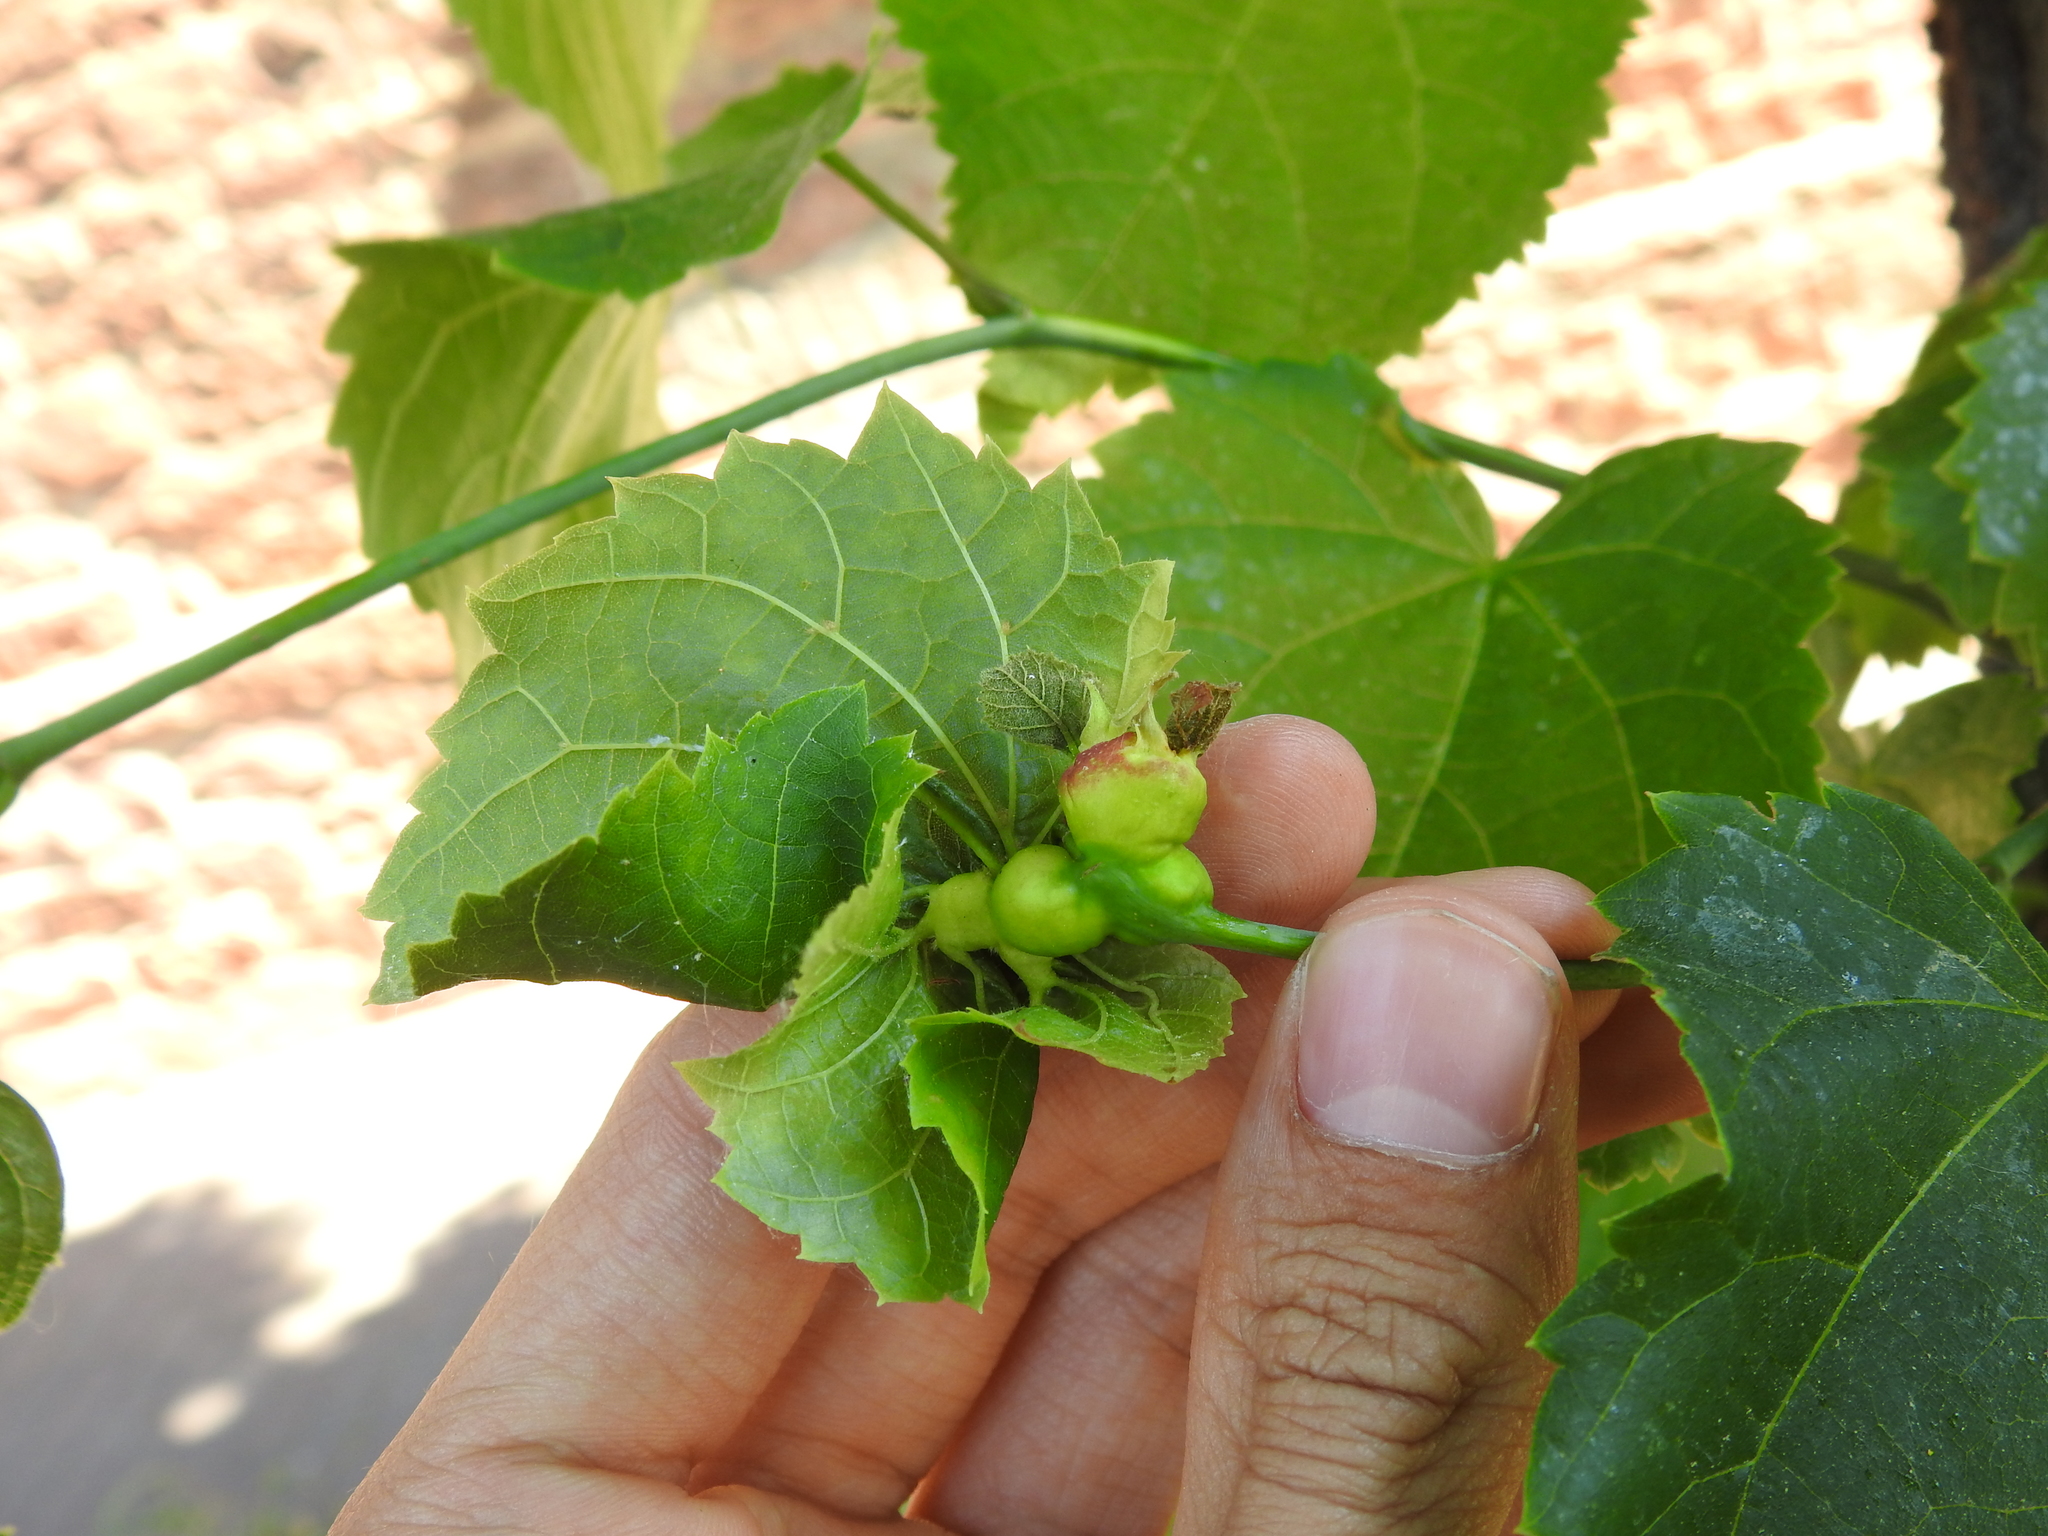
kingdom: Animalia
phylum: Arthropoda
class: Insecta
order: Diptera
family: Cecidomyiidae
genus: Contarinia
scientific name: Contarinia tiliarum
